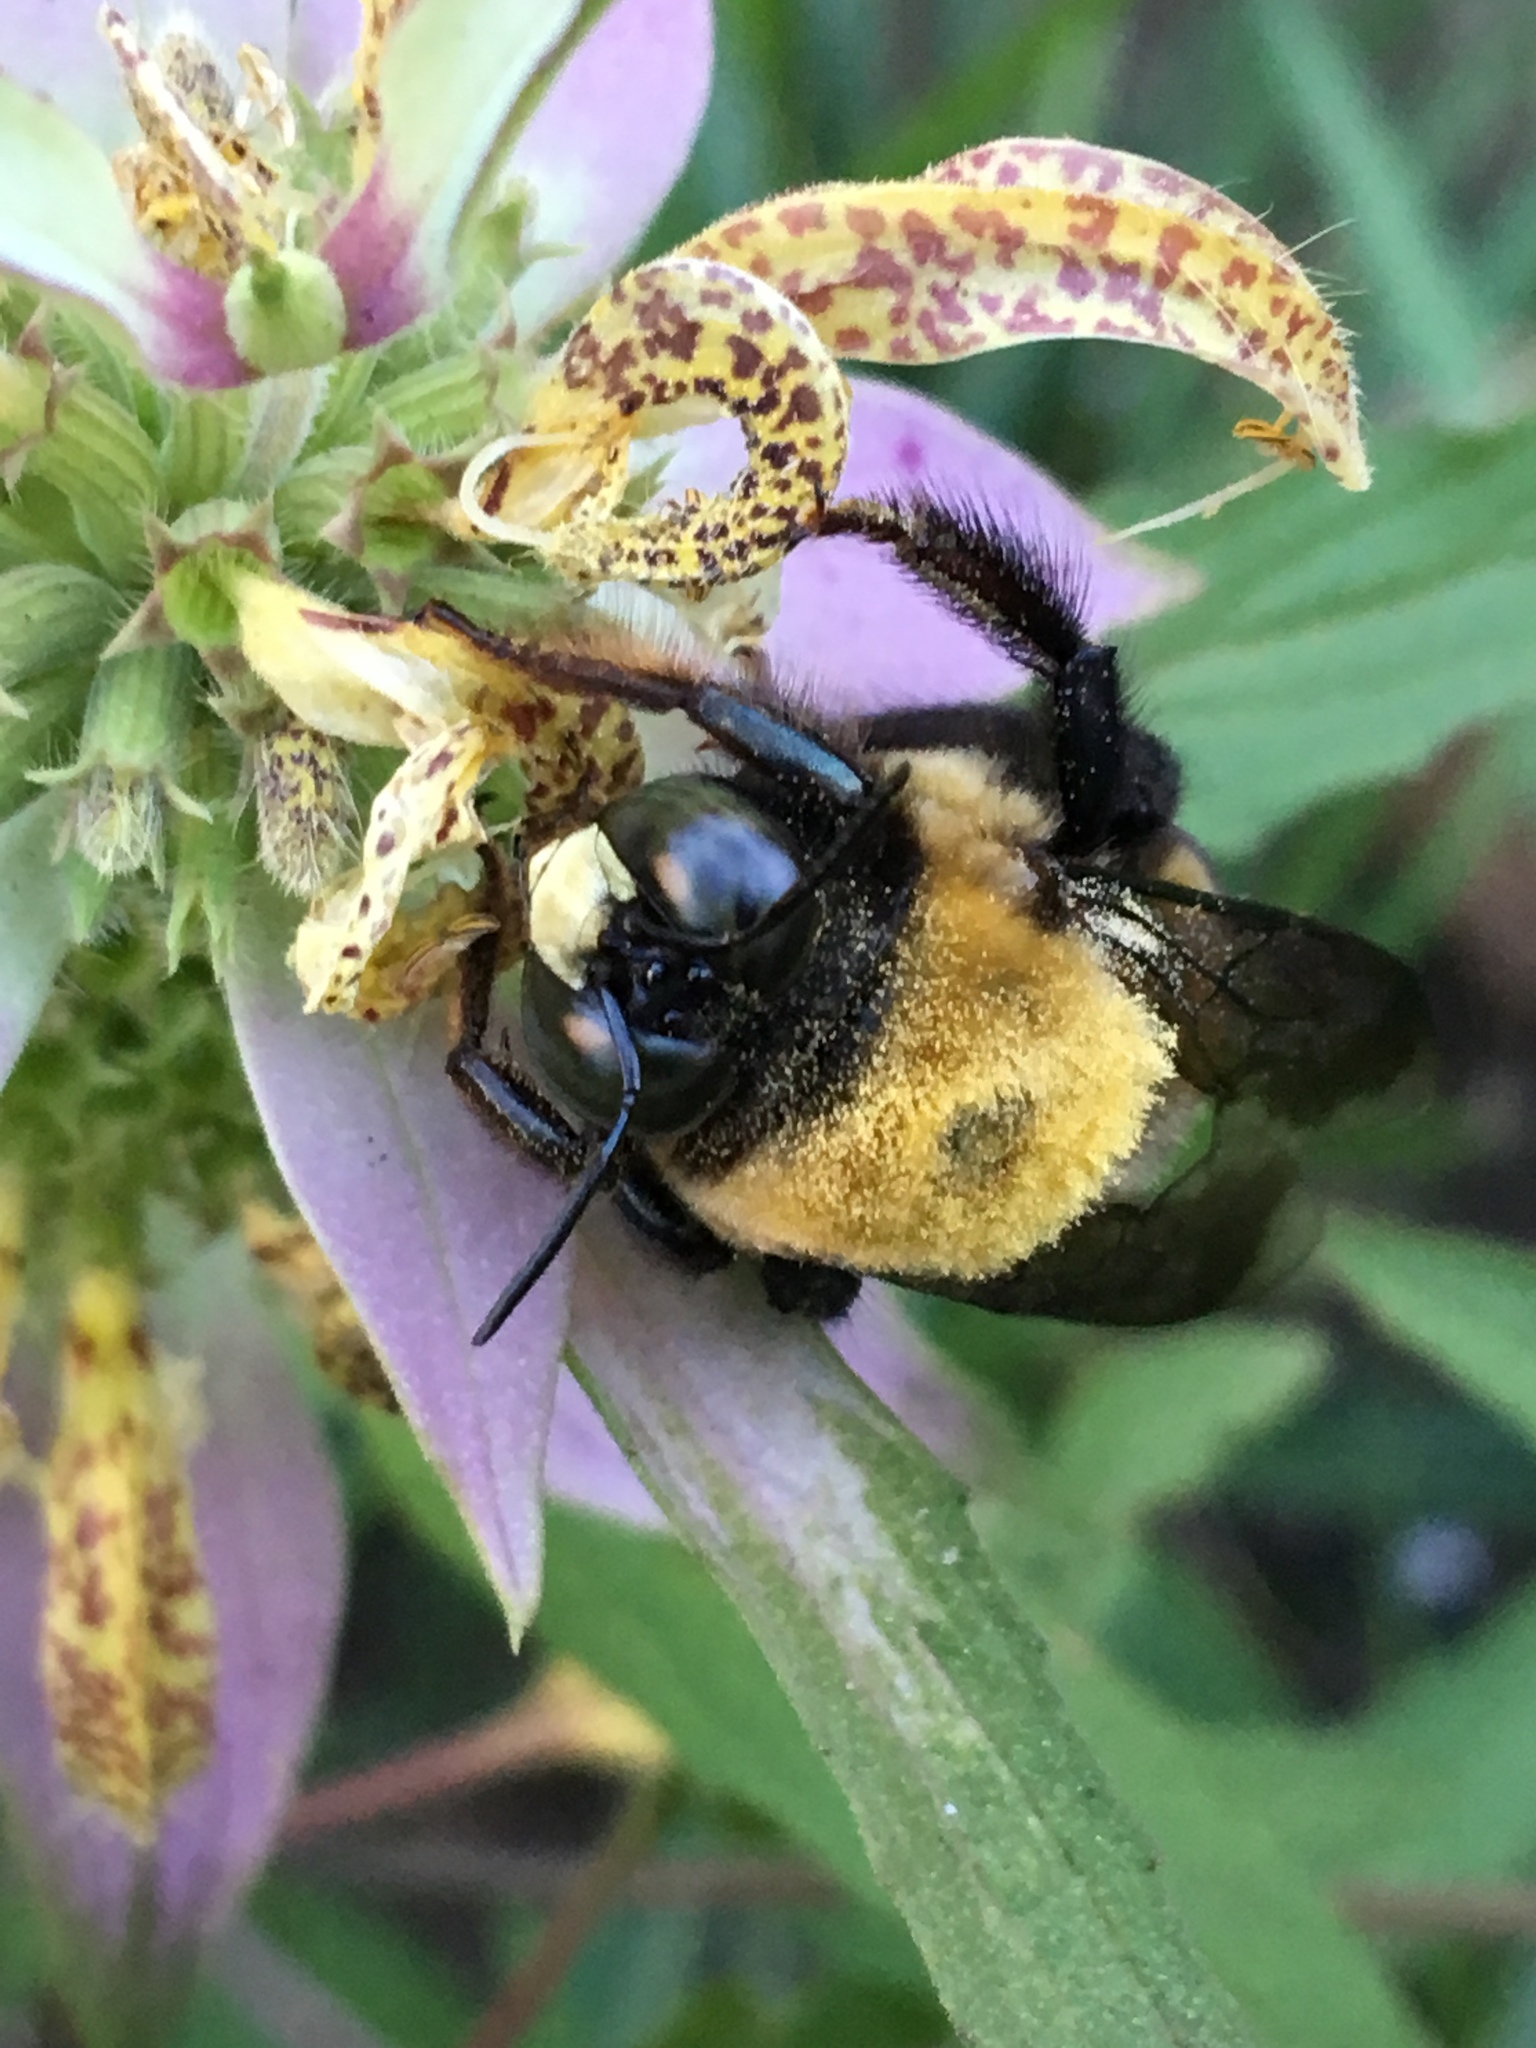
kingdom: Animalia
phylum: Arthropoda
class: Insecta
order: Hymenoptera
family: Apidae
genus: Xylocopa
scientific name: Xylocopa virginica
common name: Carpenter bee
